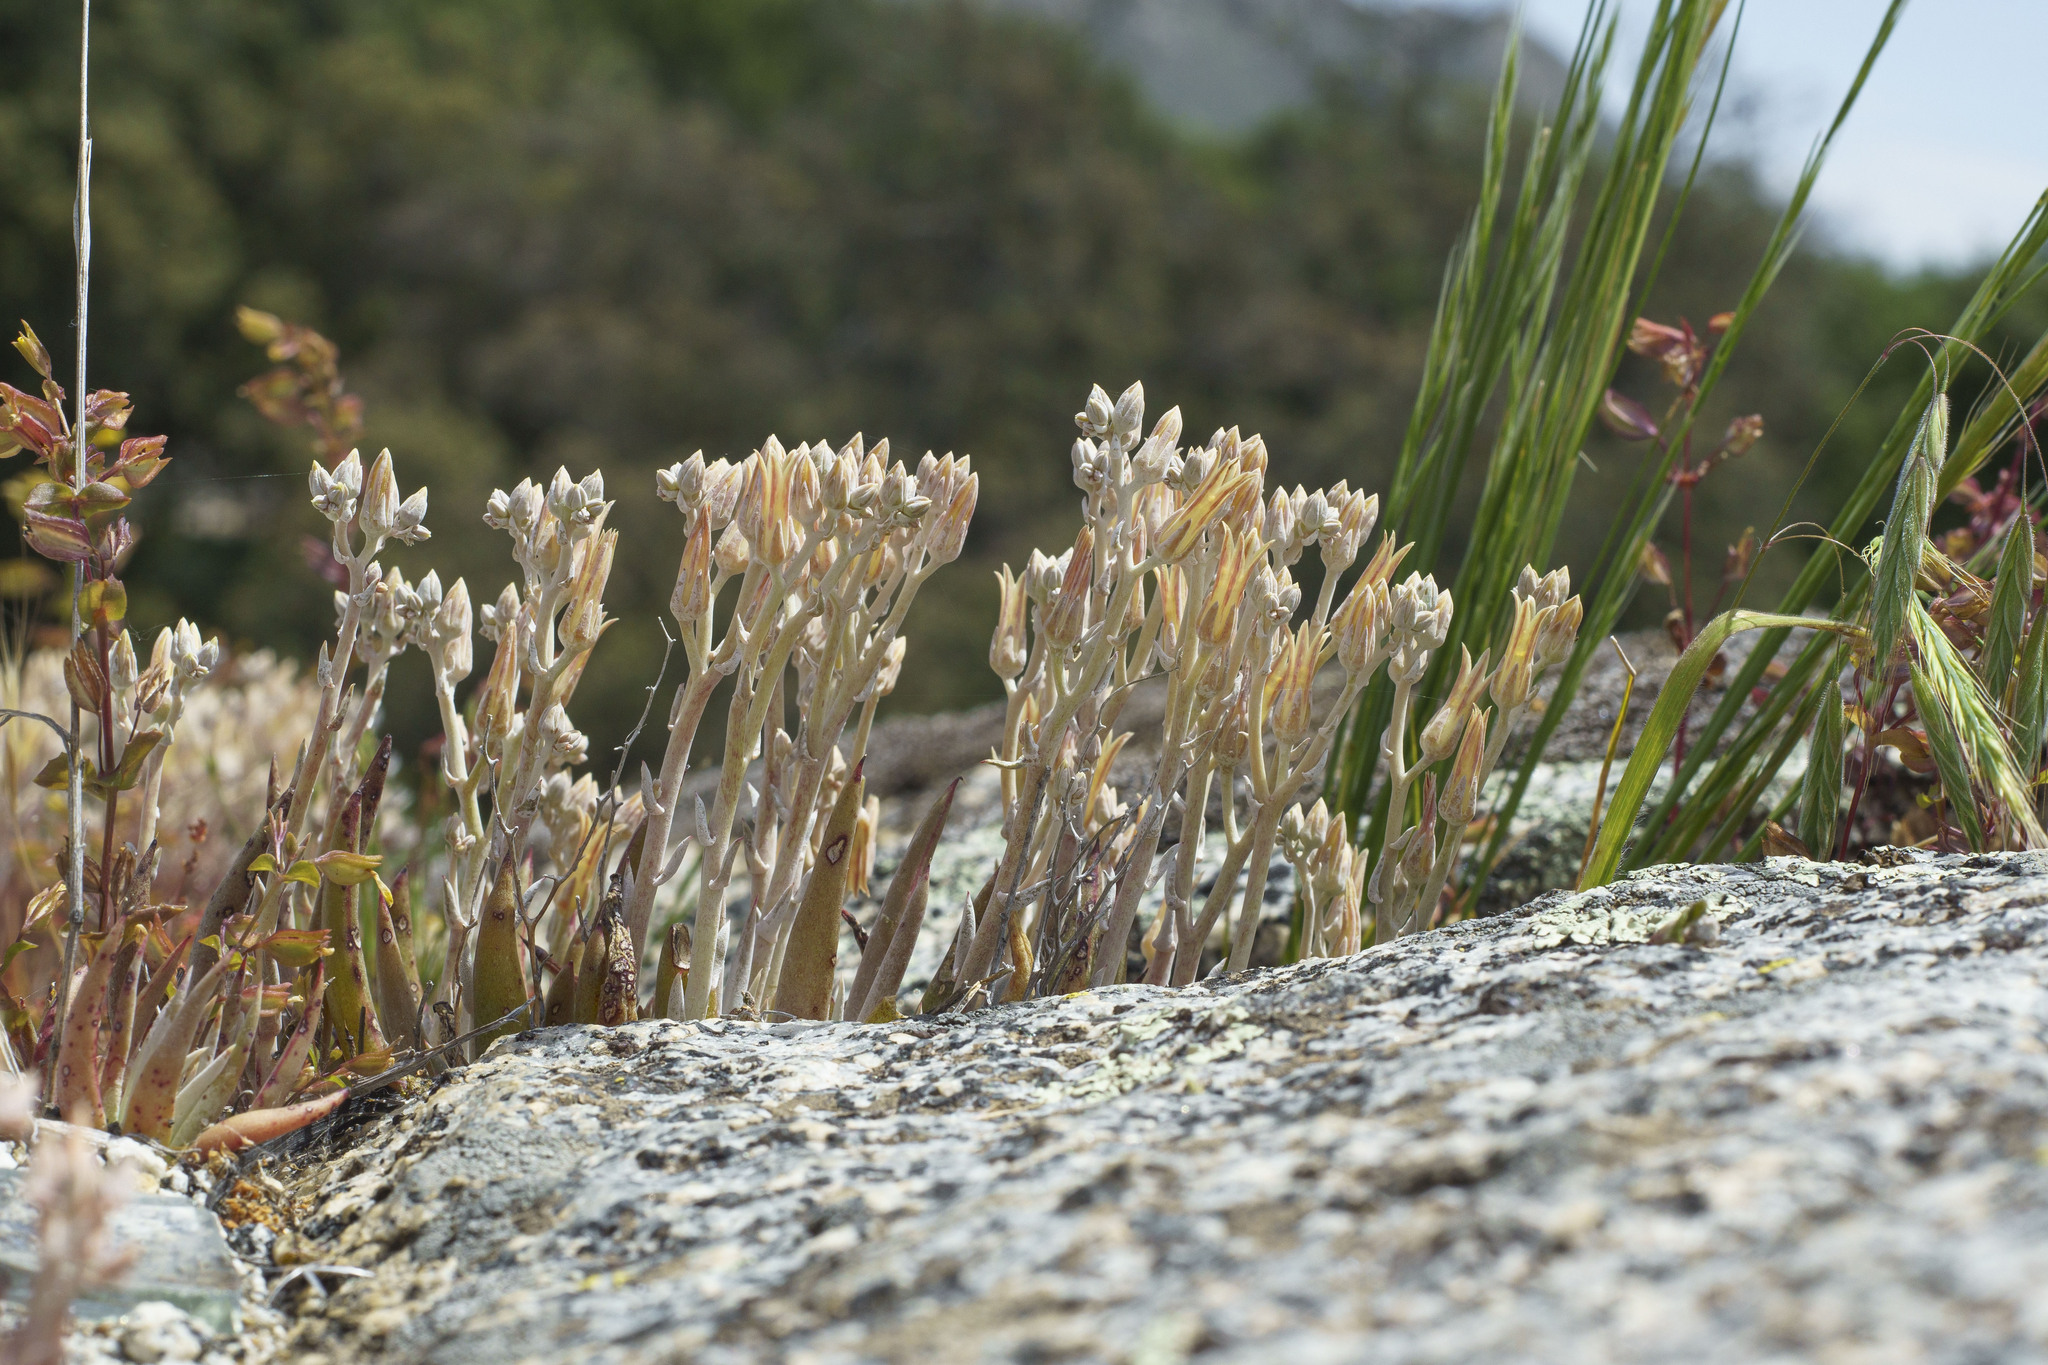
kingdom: Plantae
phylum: Tracheophyta
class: Magnoliopsida
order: Saxifragales
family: Crassulaceae
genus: Dudleya
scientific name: Dudleya abramsii
